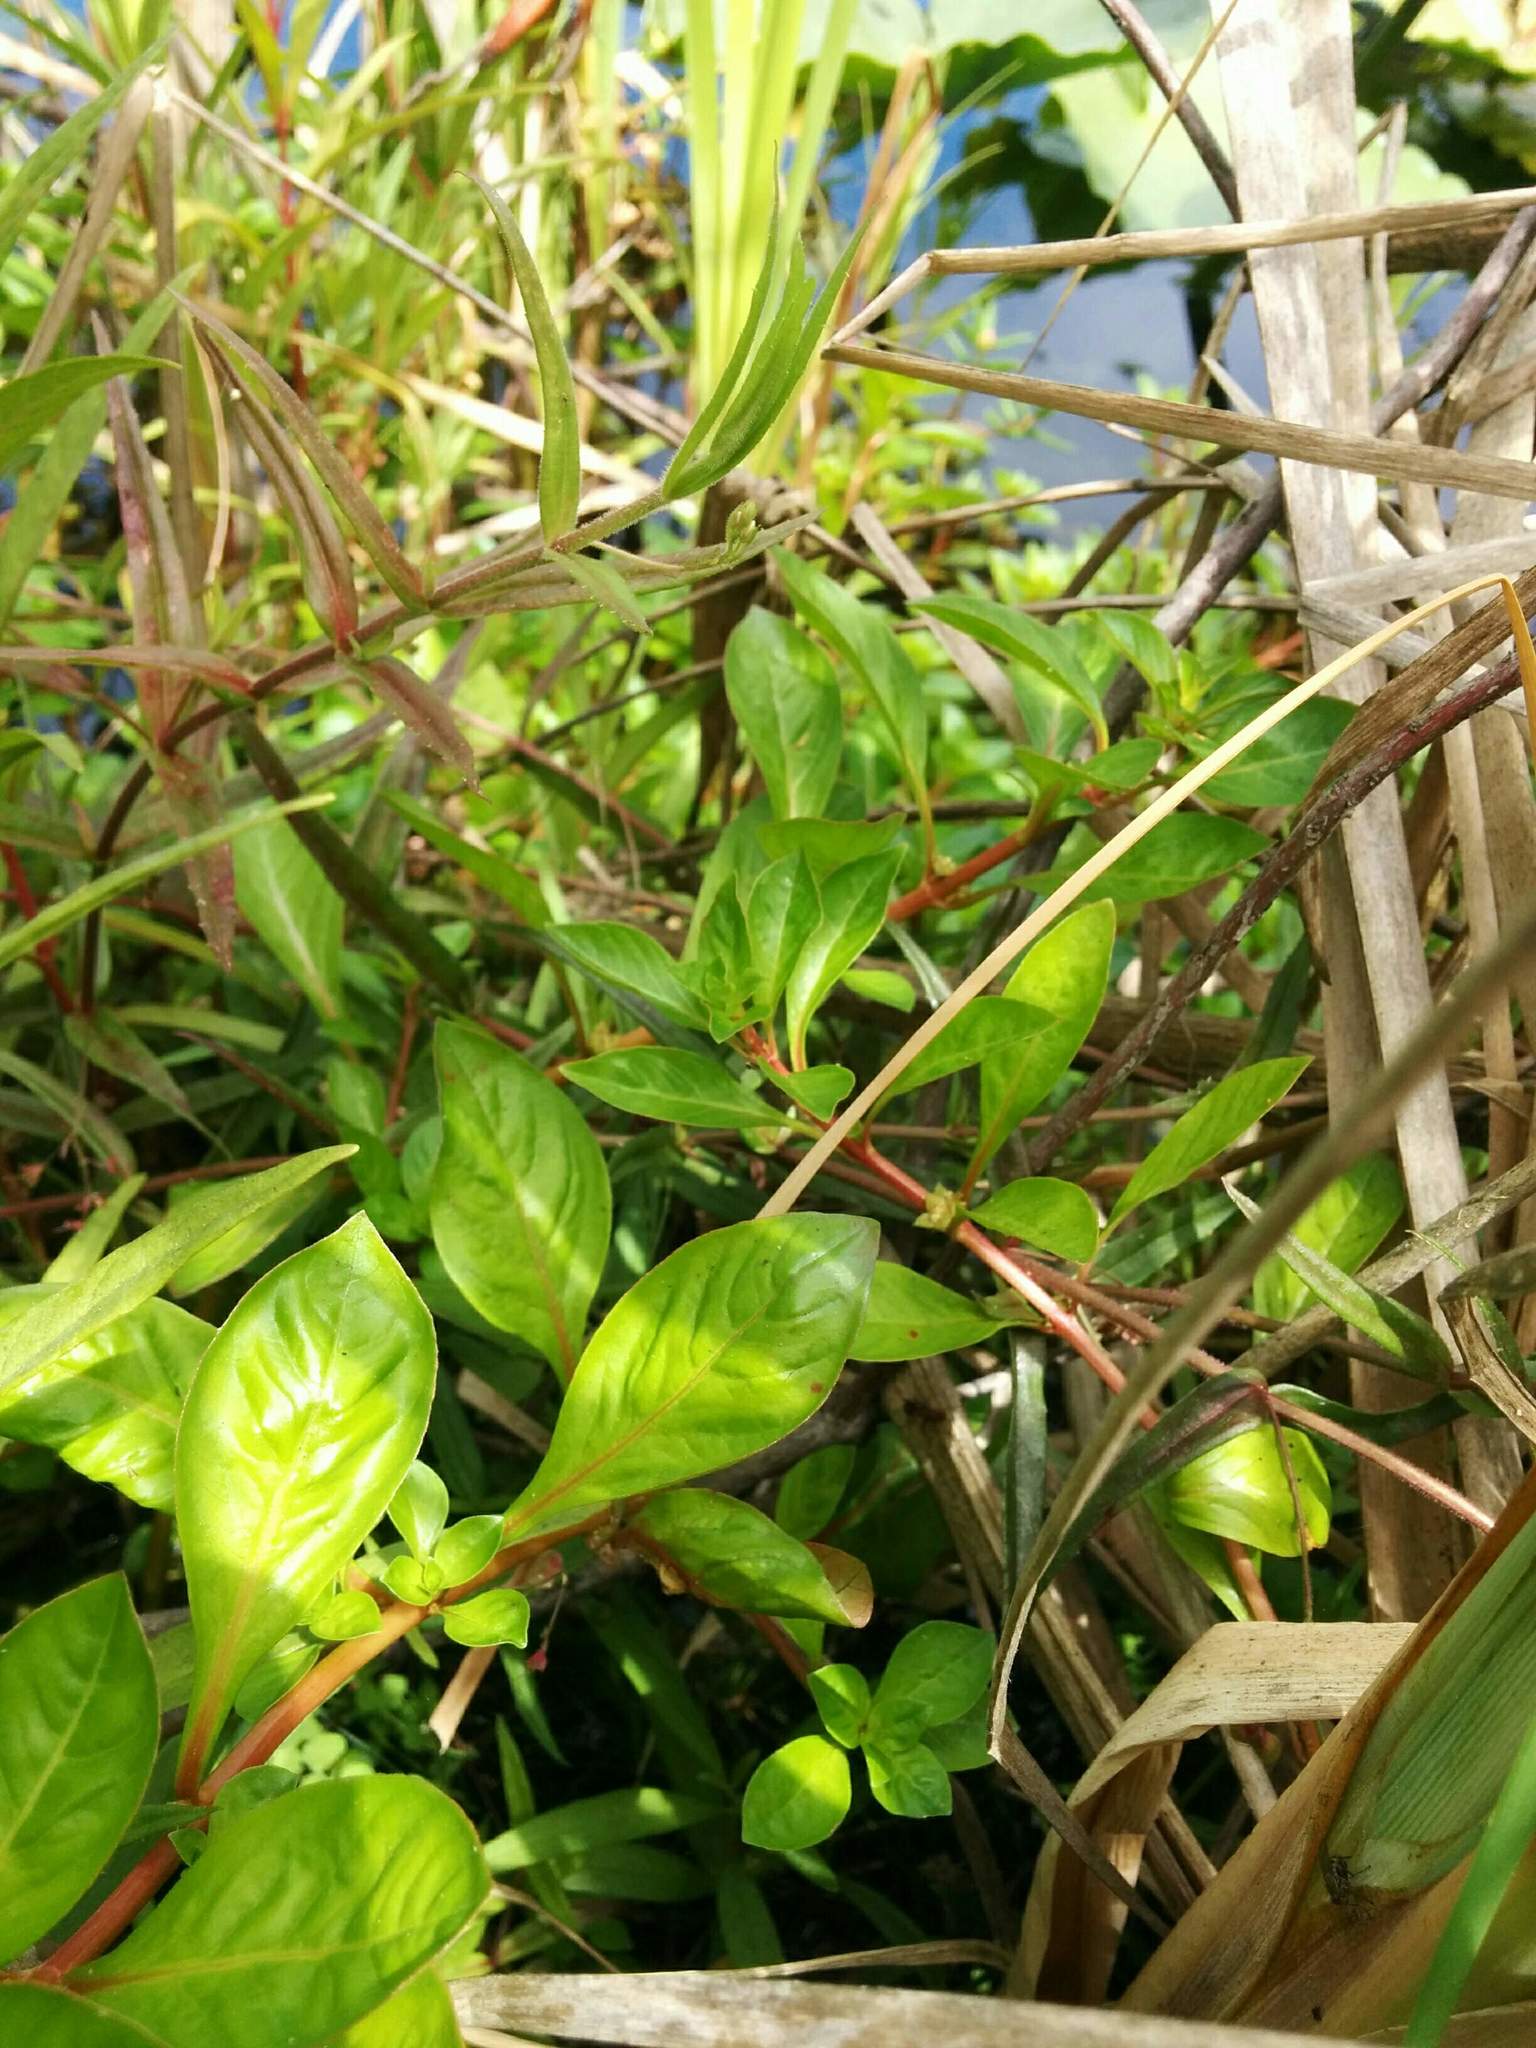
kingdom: Plantae
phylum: Tracheophyta
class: Magnoliopsida
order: Myrtales
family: Onagraceae
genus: Ludwigia
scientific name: Ludwigia palustris
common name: Hampshire-purslane
